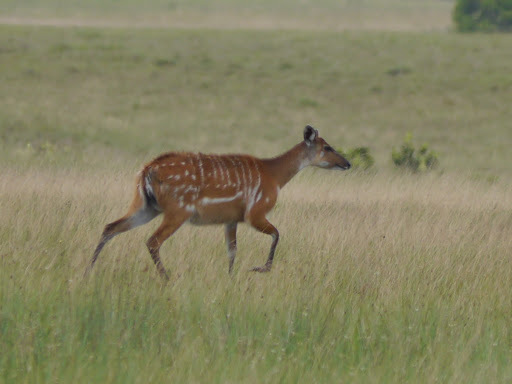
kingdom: Animalia
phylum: Chordata
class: Mammalia
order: Artiodactyla
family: Bovidae
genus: Tragelaphus
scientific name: Tragelaphus spekii
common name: Sitatunga
